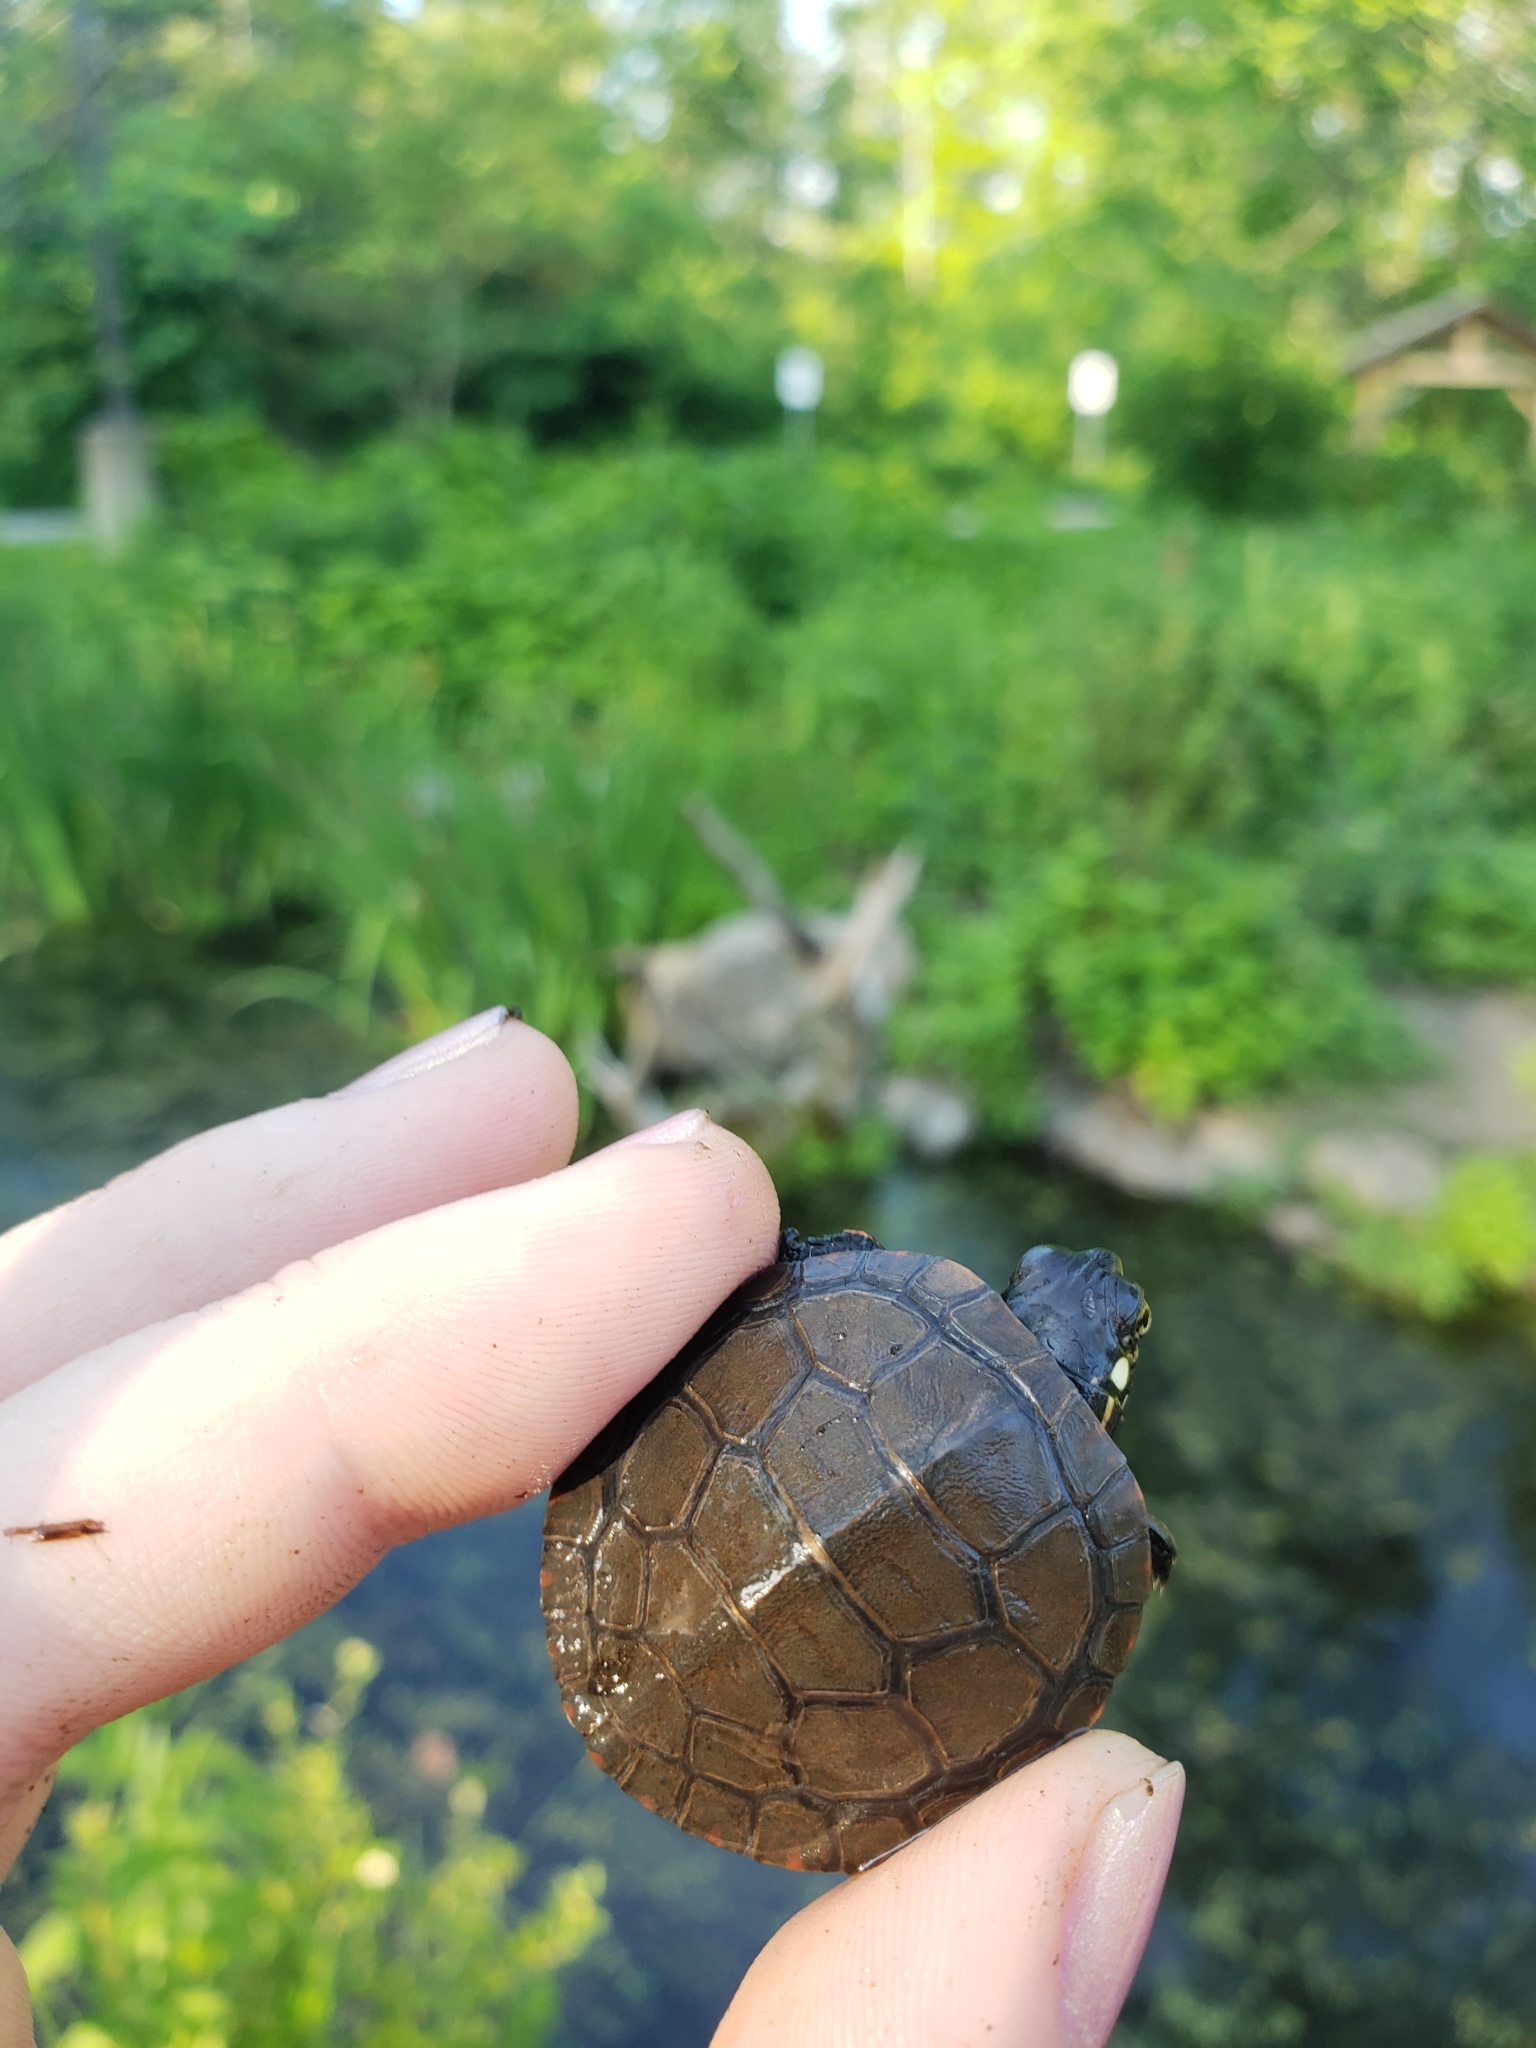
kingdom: Animalia
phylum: Chordata
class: Testudines
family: Emydidae
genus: Chrysemys
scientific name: Chrysemys picta
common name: Painted turtle
